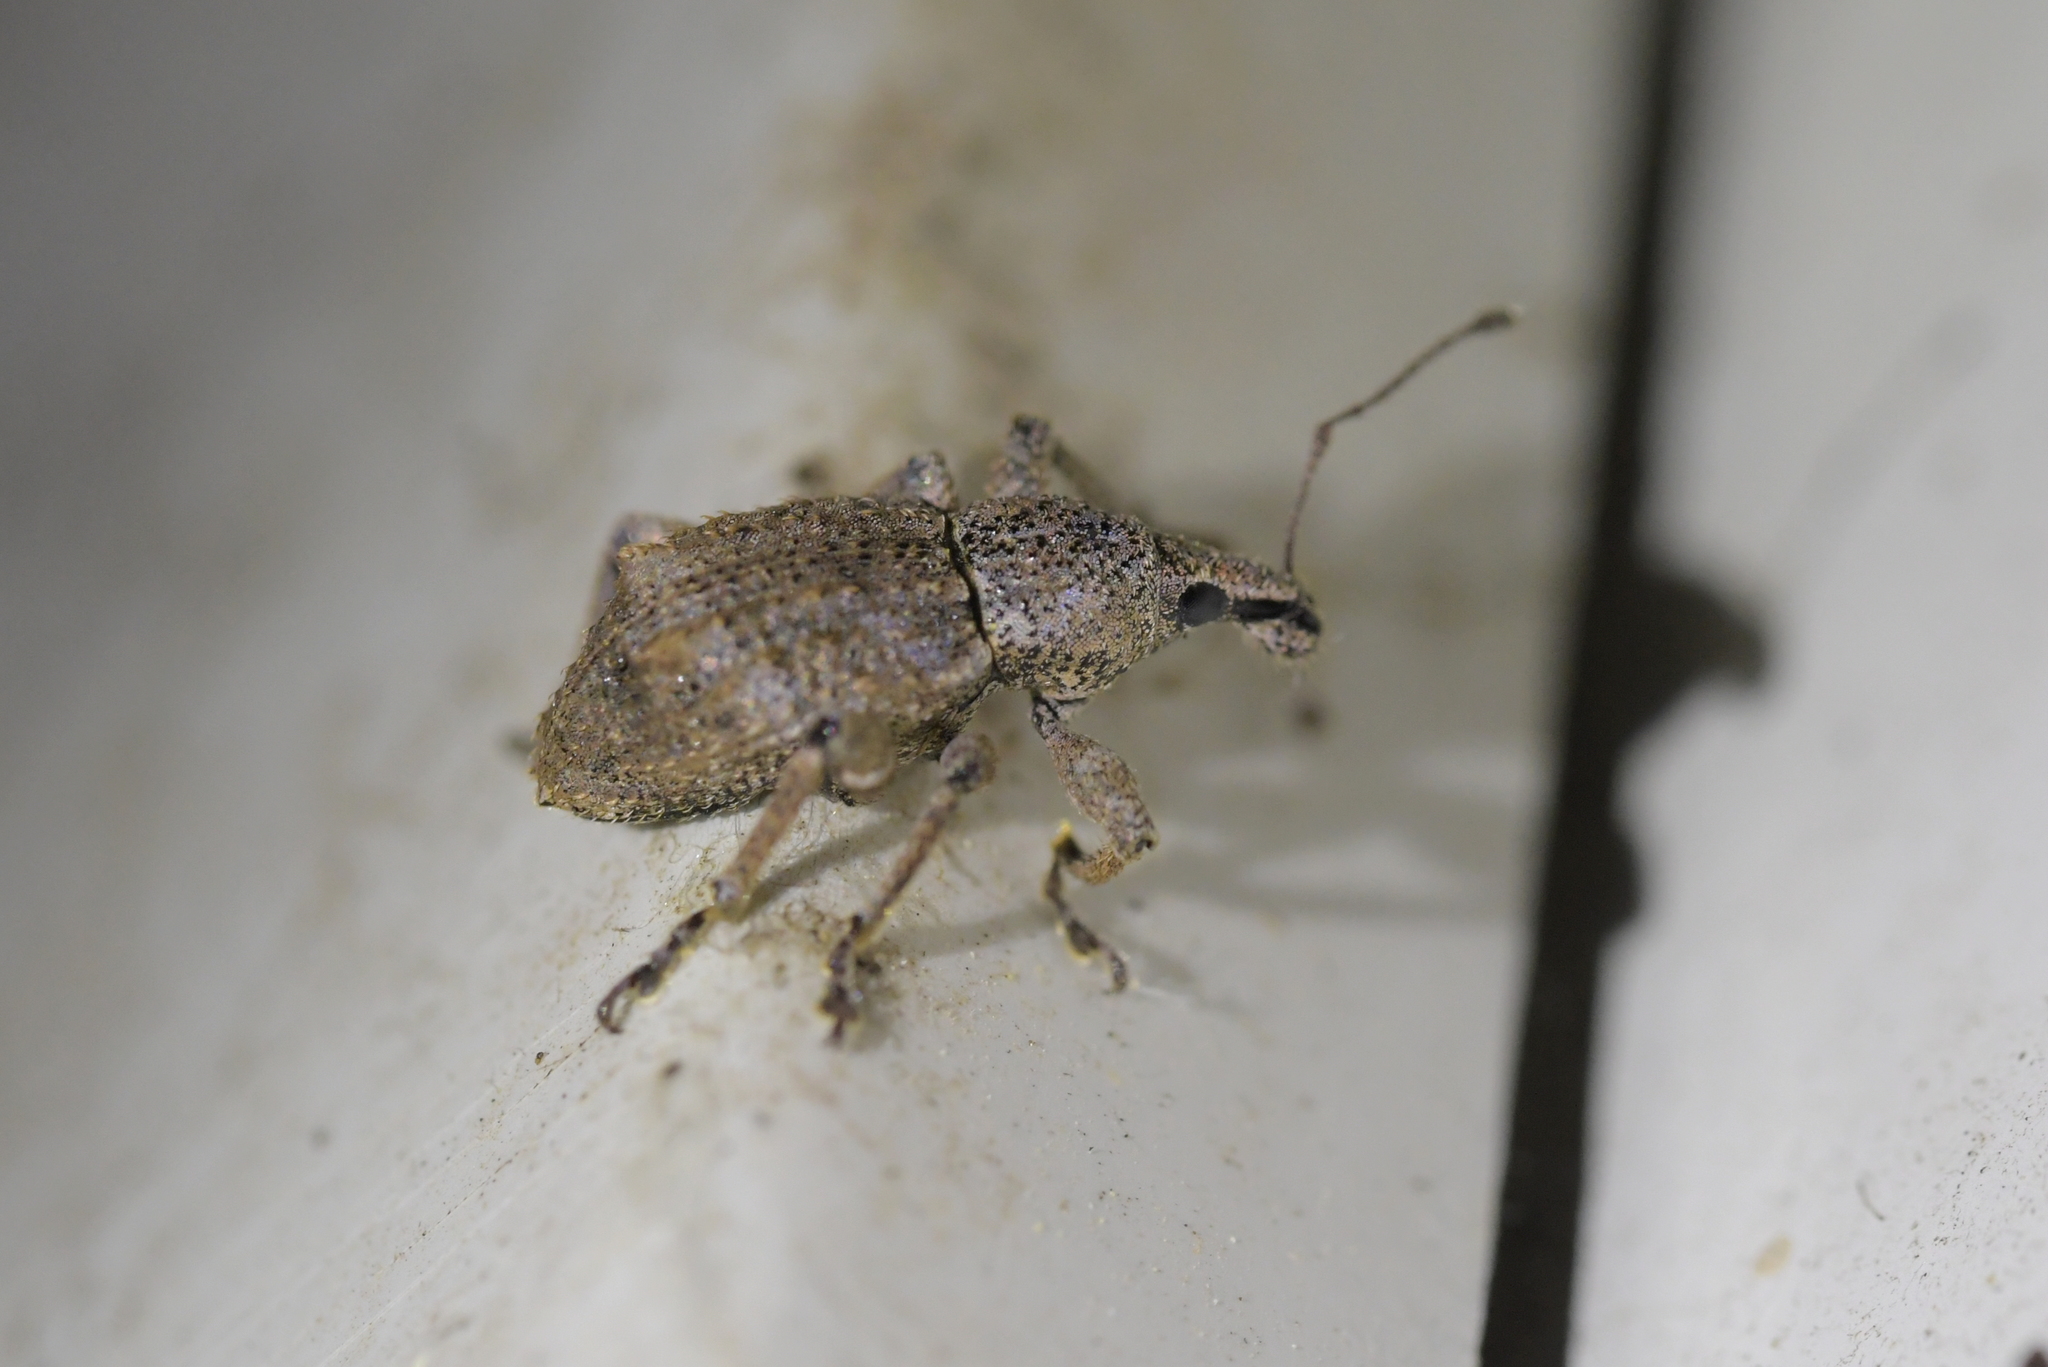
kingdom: Animalia
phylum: Arthropoda
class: Insecta
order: Coleoptera
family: Curculionidae
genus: Catoptes
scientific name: Catoptes binodis
